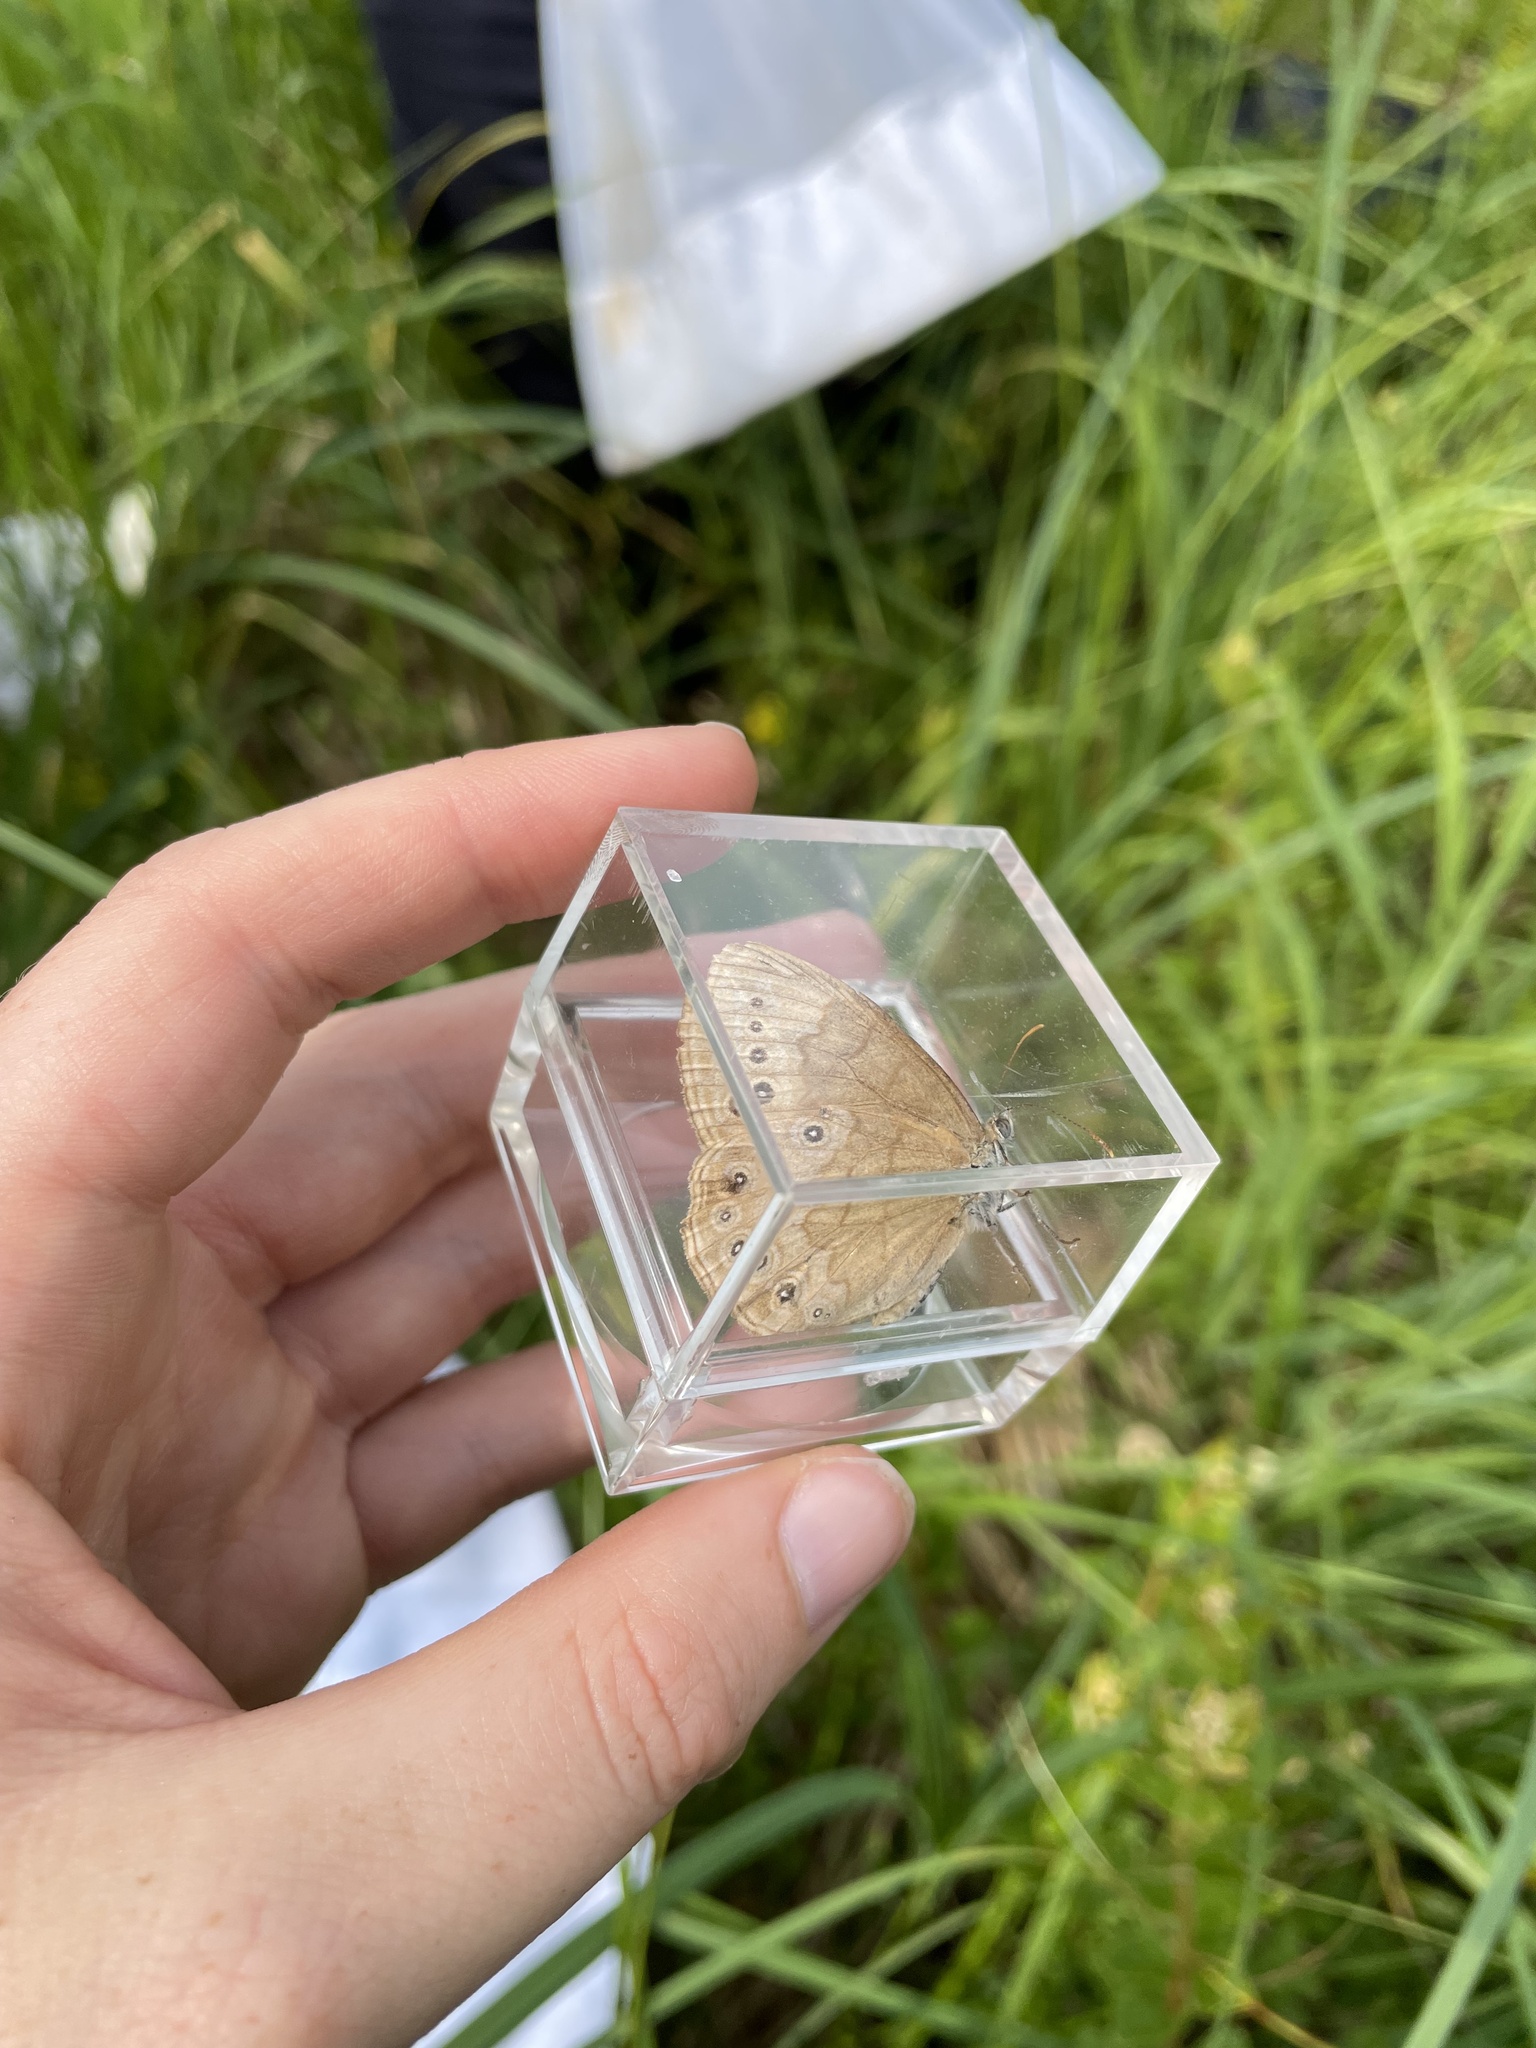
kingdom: Animalia
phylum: Arthropoda
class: Insecta
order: Lepidoptera
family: Nymphalidae
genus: Lethe
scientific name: Lethe eurydice
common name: Eyed brown
